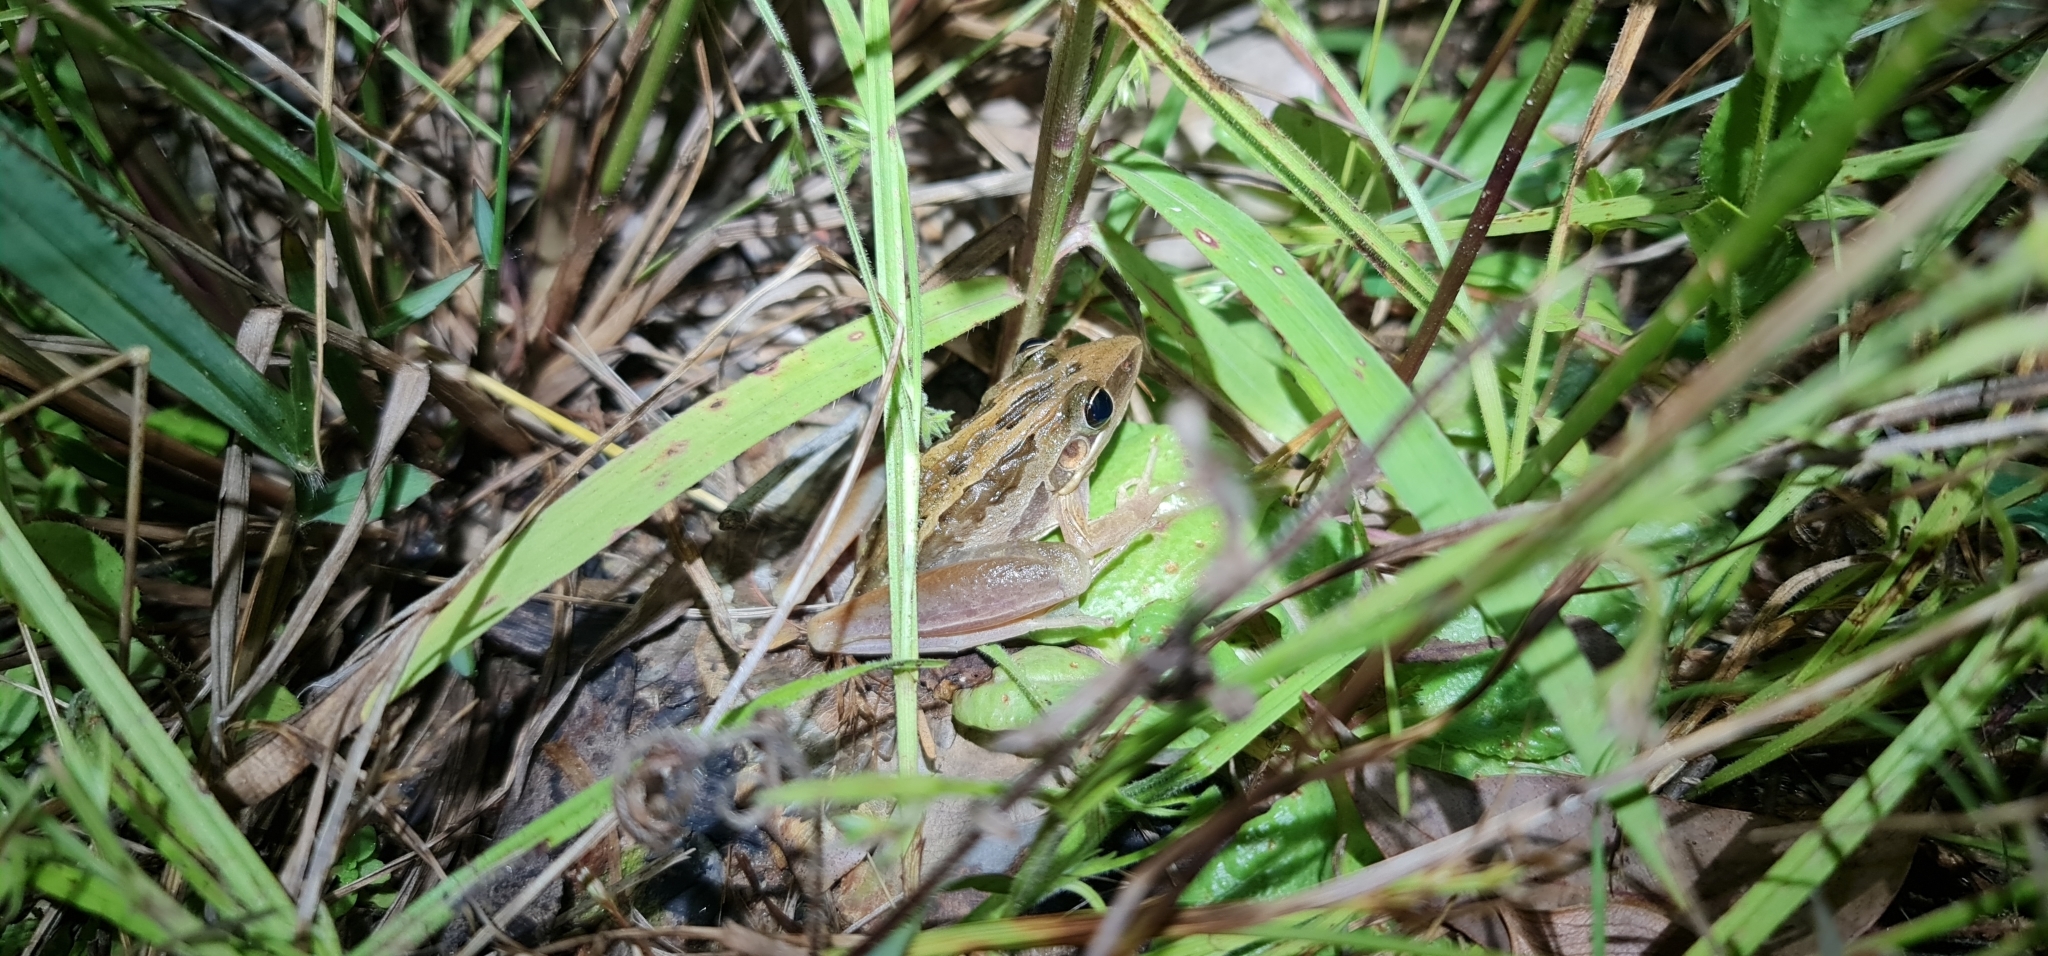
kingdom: Animalia
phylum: Chordata
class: Amphibia
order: Anura
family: Pelodryadidae
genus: Litoria
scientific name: Litoria nasuta
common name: Rocket frog
